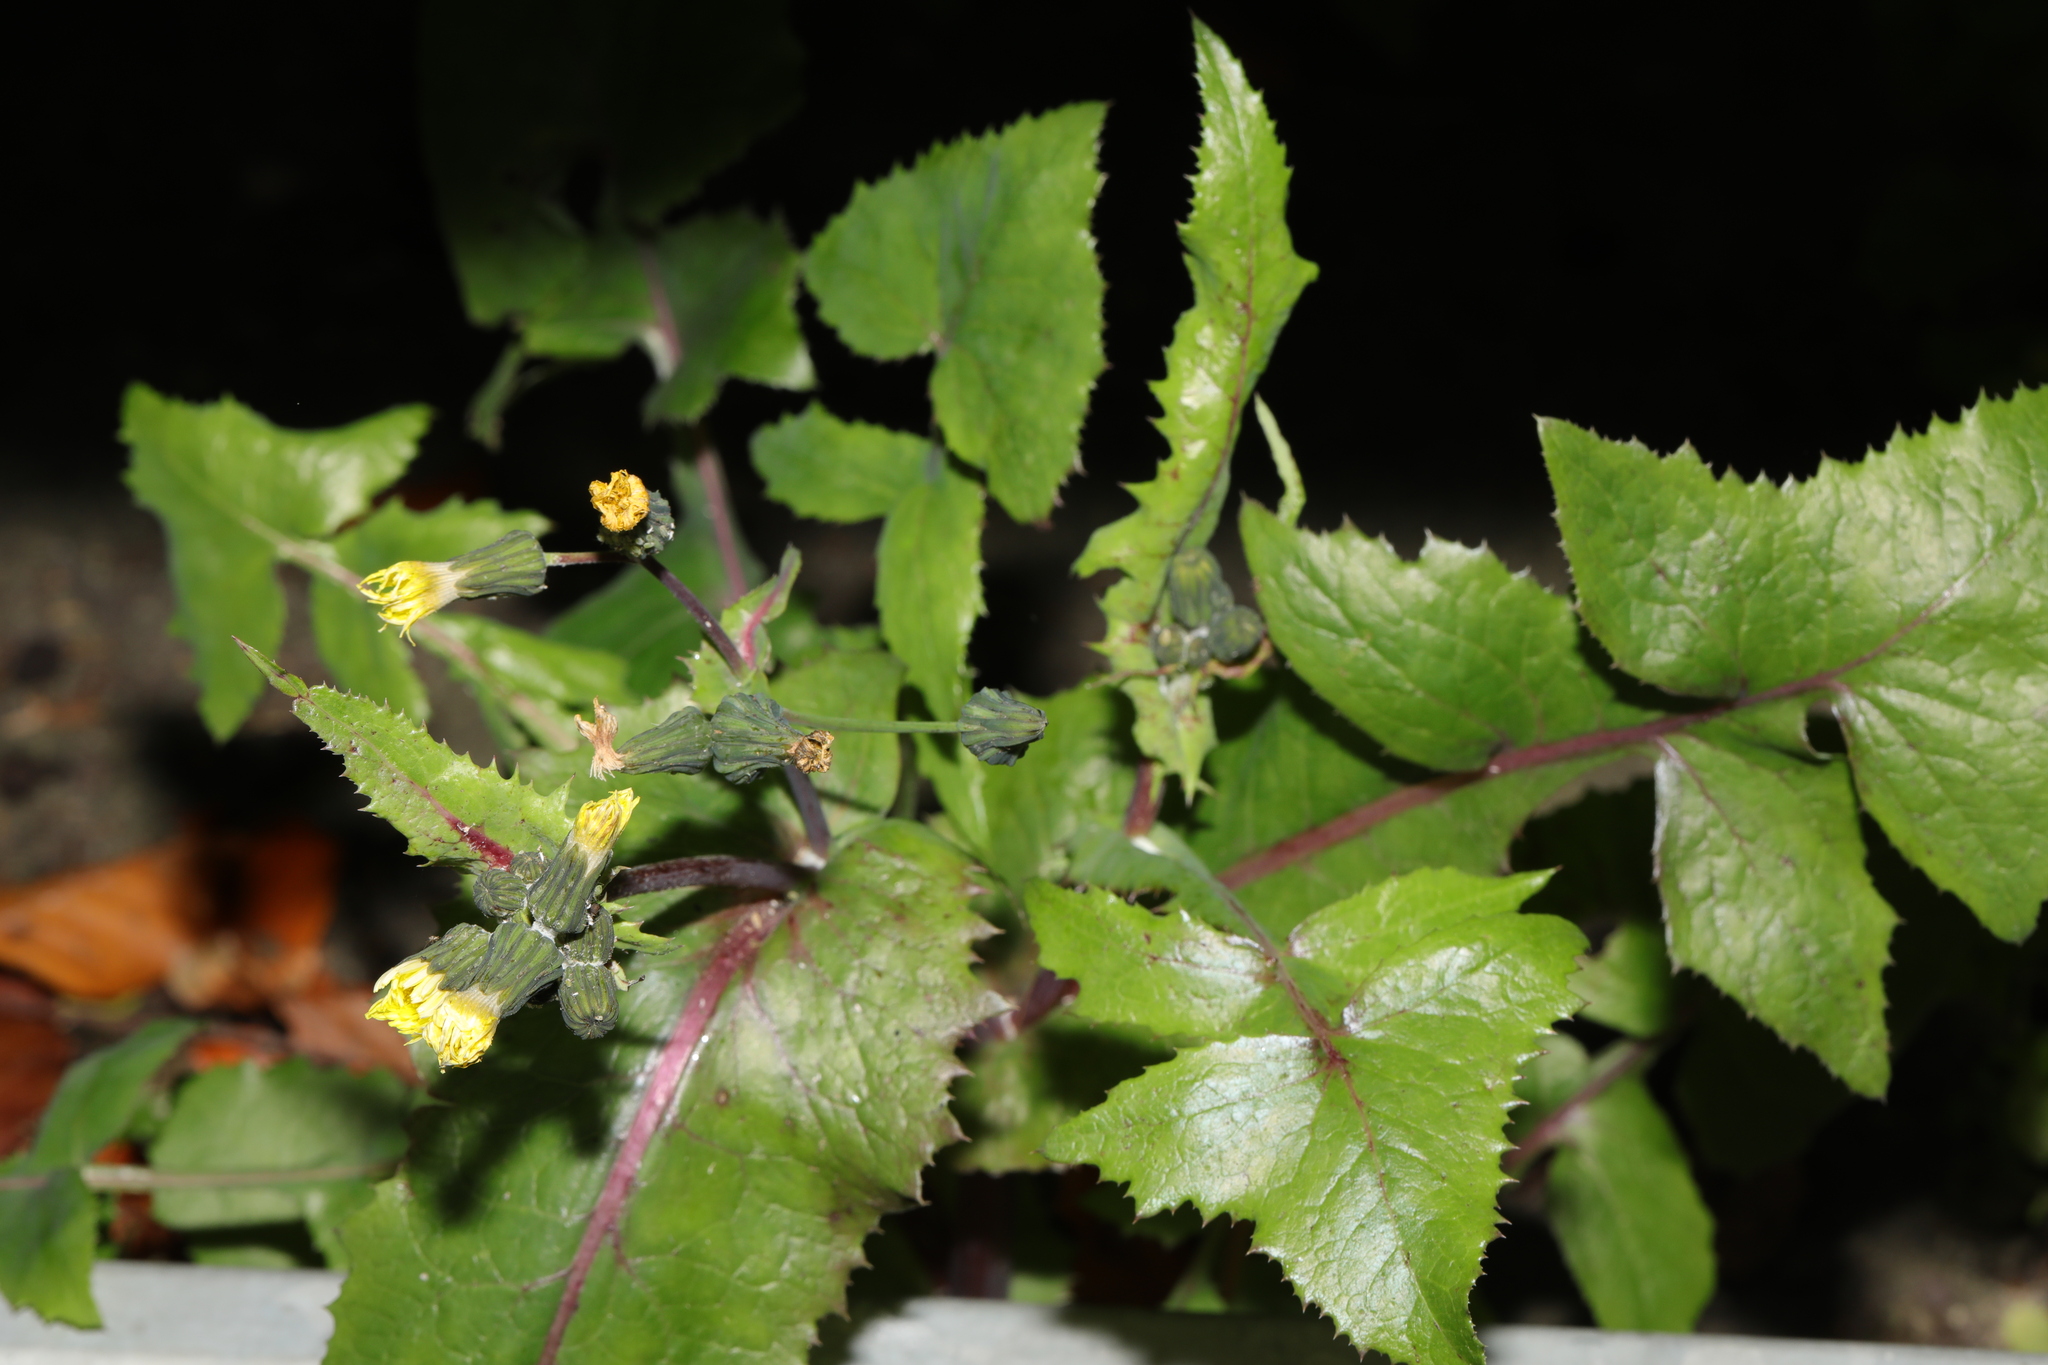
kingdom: Plantae
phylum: Tracheophyta
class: Magnoliopsida
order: Asterales
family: Asteraceae
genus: Sonchus
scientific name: Sonchus oleraceus
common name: Common sowthistle
